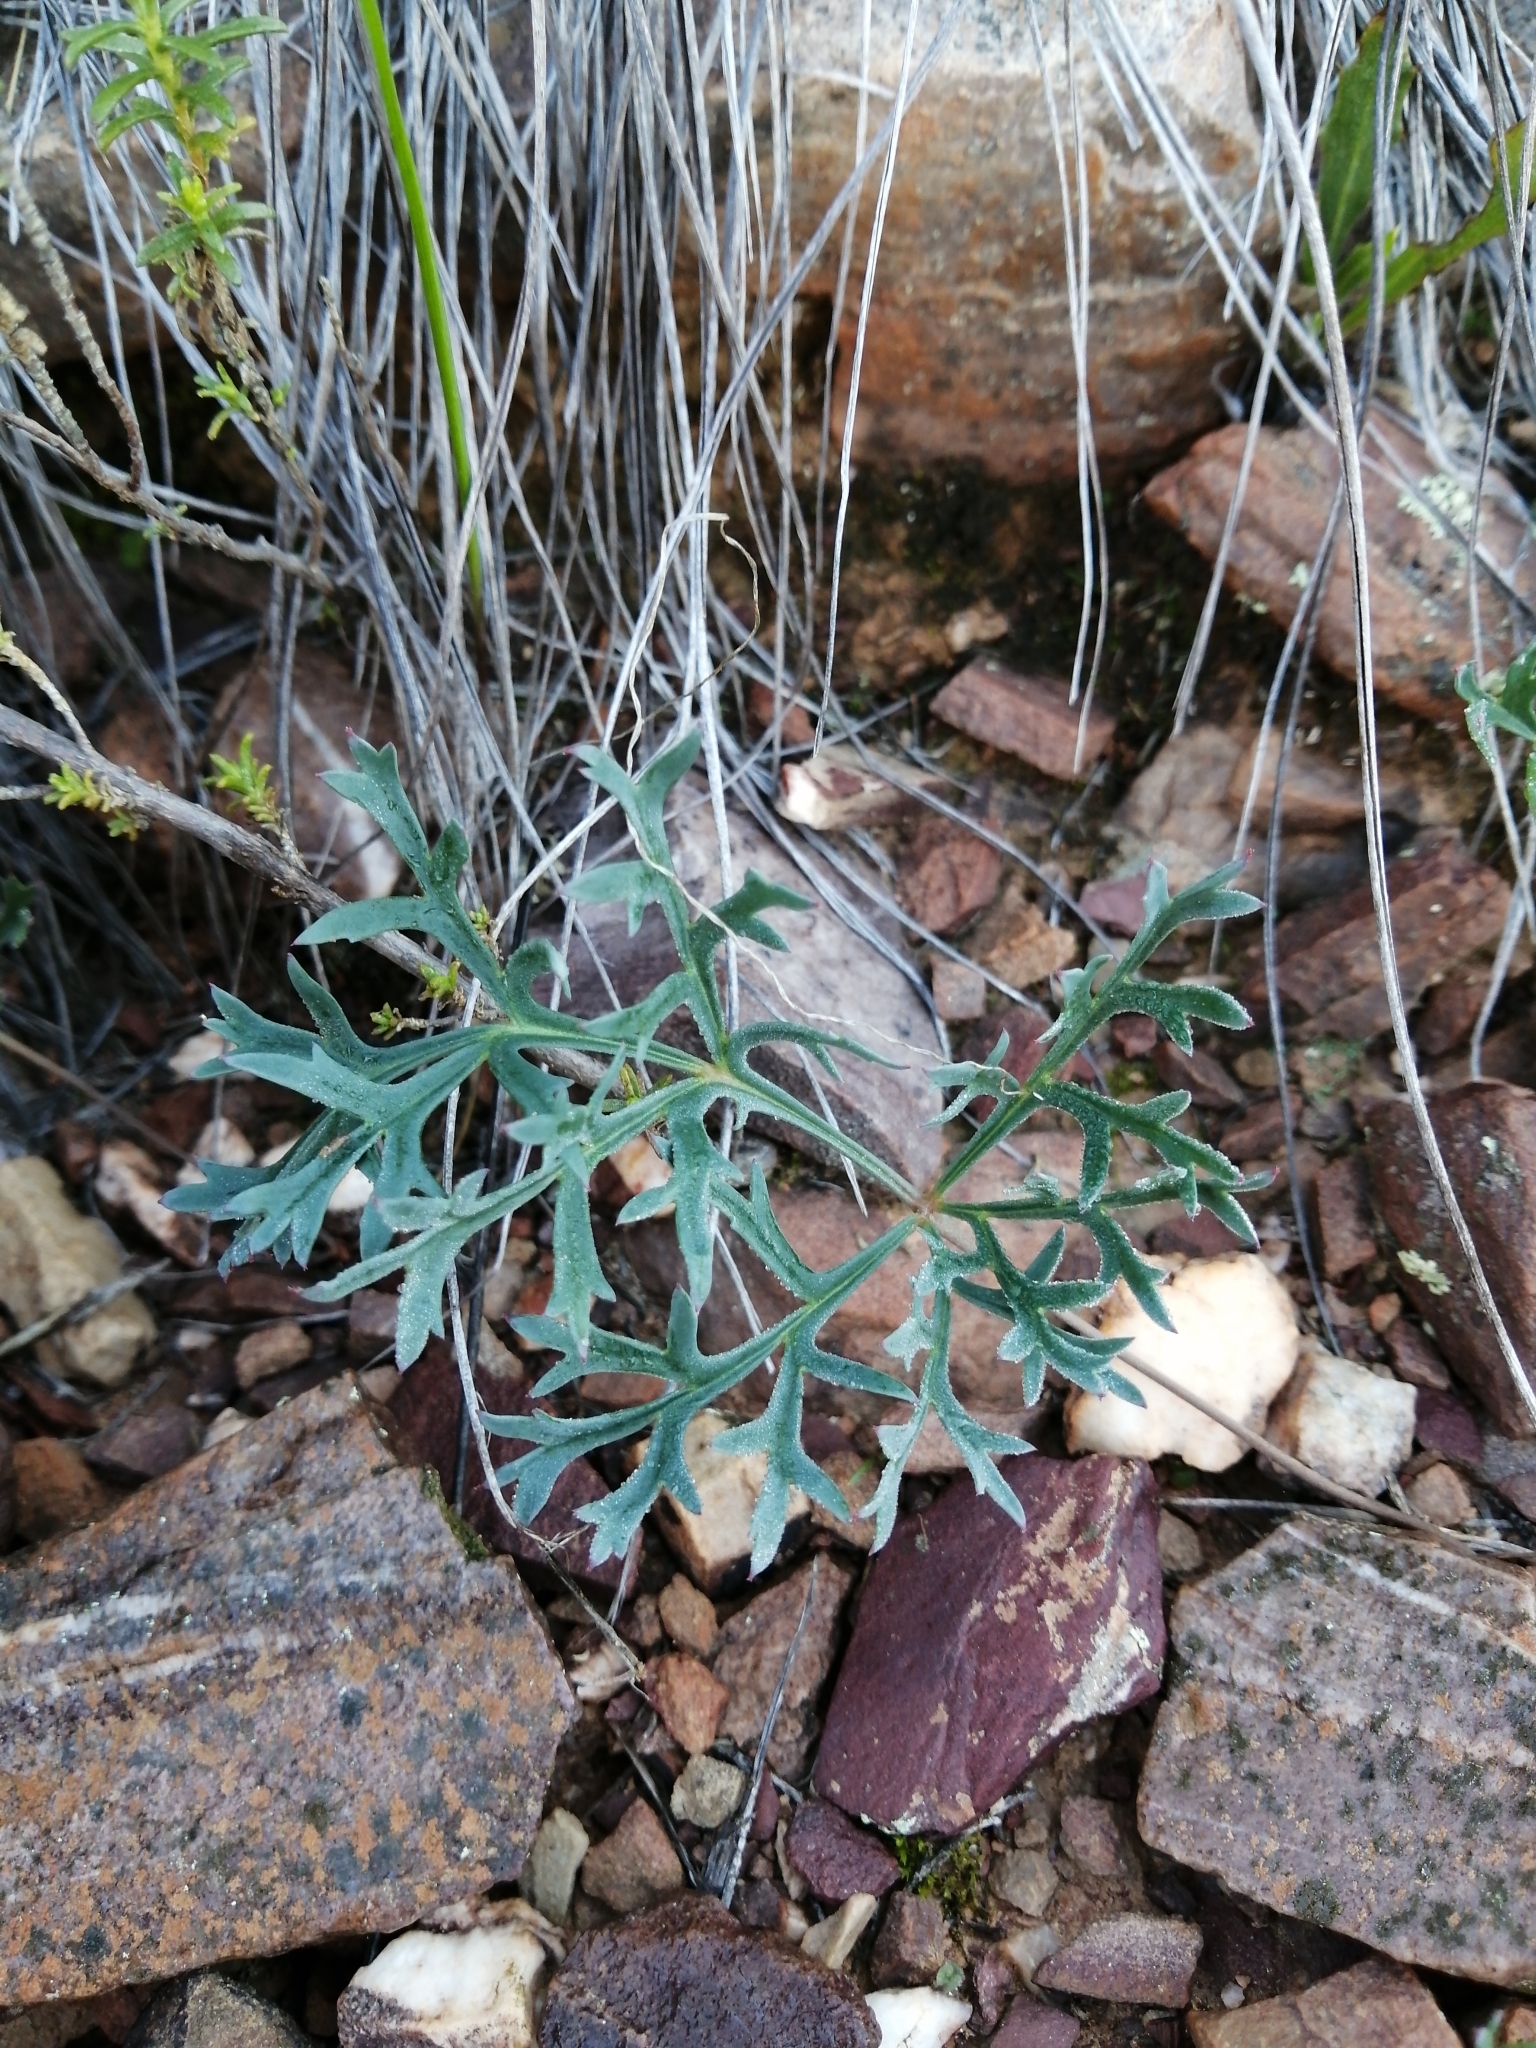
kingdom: Plantae
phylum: Tracheophyta
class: Magnoliopsida
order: Geraniales
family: Geraniaceae
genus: Pelargonium
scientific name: Pelargonium pillansii
